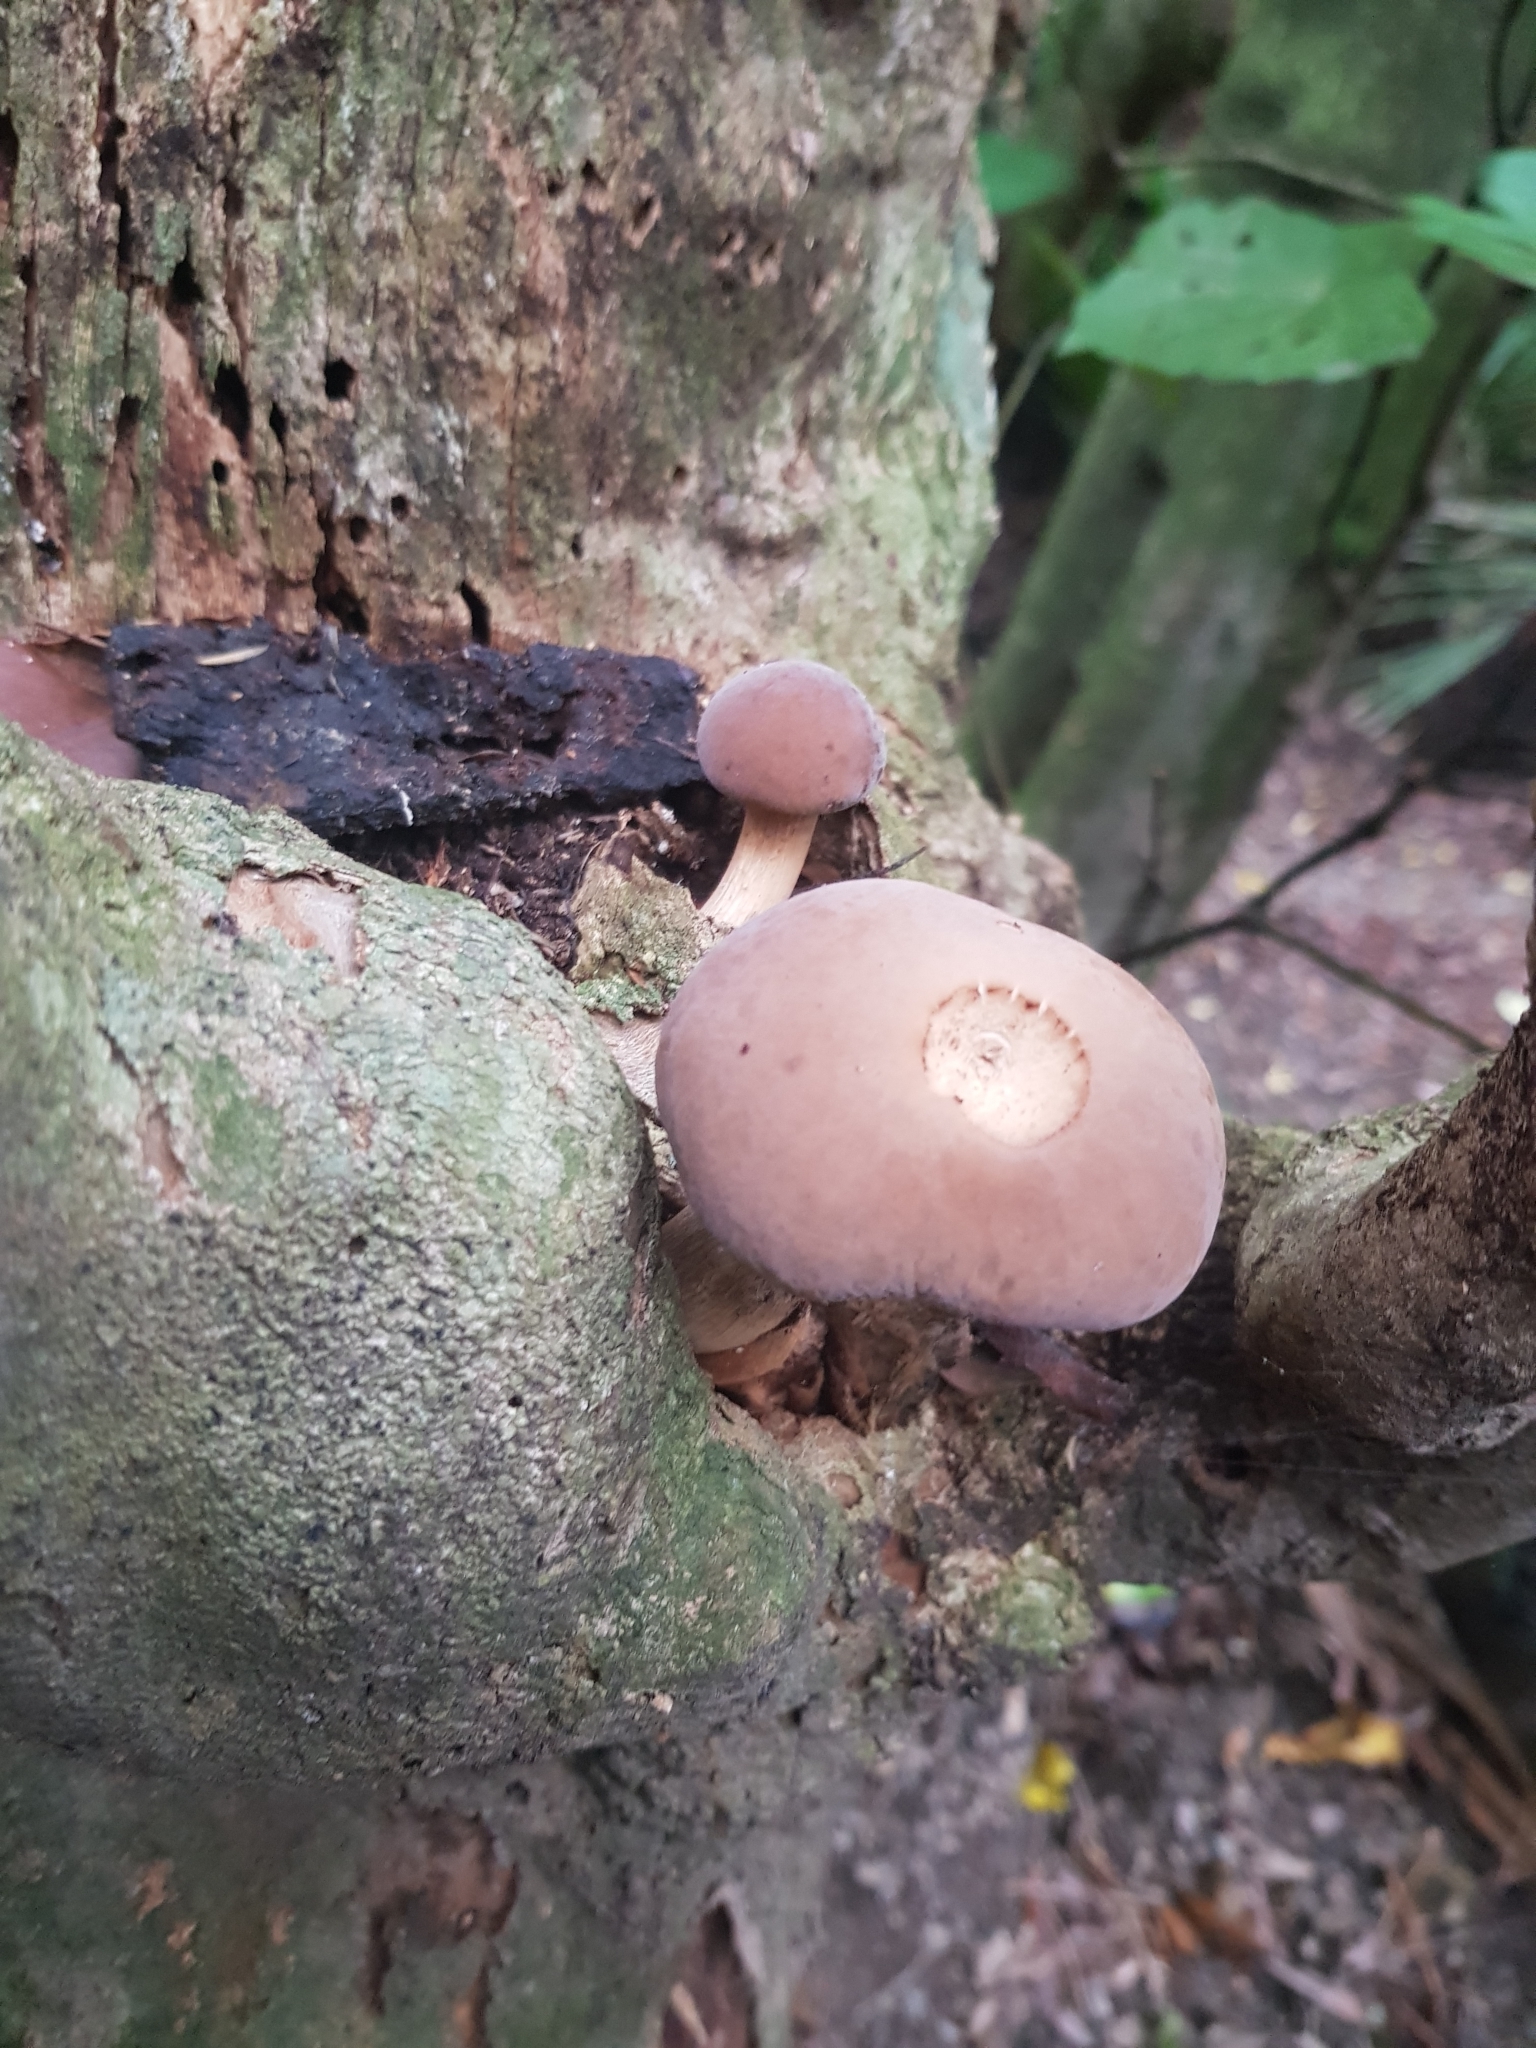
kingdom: Fungi
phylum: Basidiomycota
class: Agaricomycetes
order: Agaricales
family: Tubariaceae
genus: Cyclocybe
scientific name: Cyclocybe parasitica
